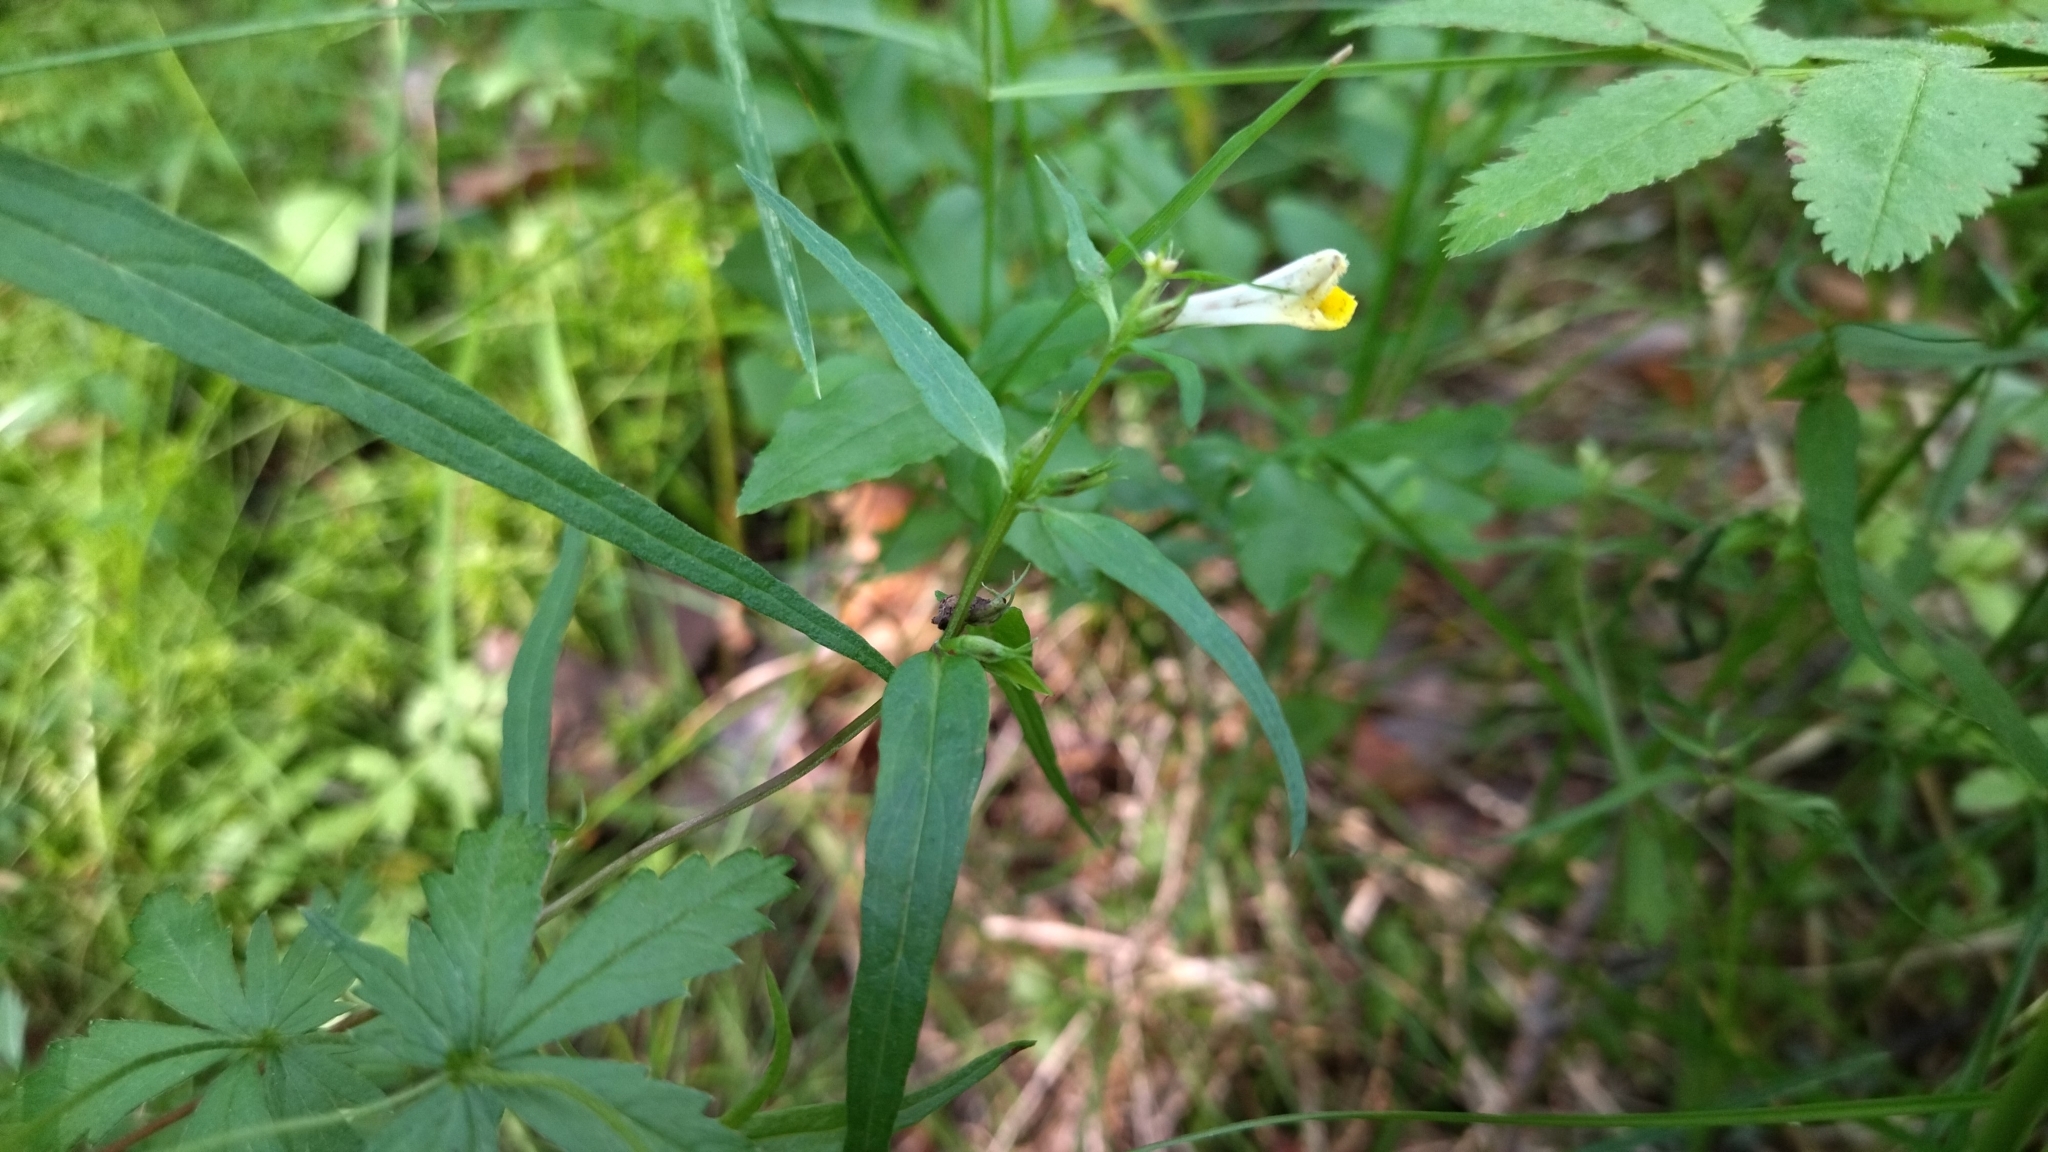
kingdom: Plantae
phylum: Tracheophyta
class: Magnoliopsida
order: Lamiales
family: Orobanchaceae
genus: Melampyrum
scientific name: Melampyrum pratense
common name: Common cow-wheat
